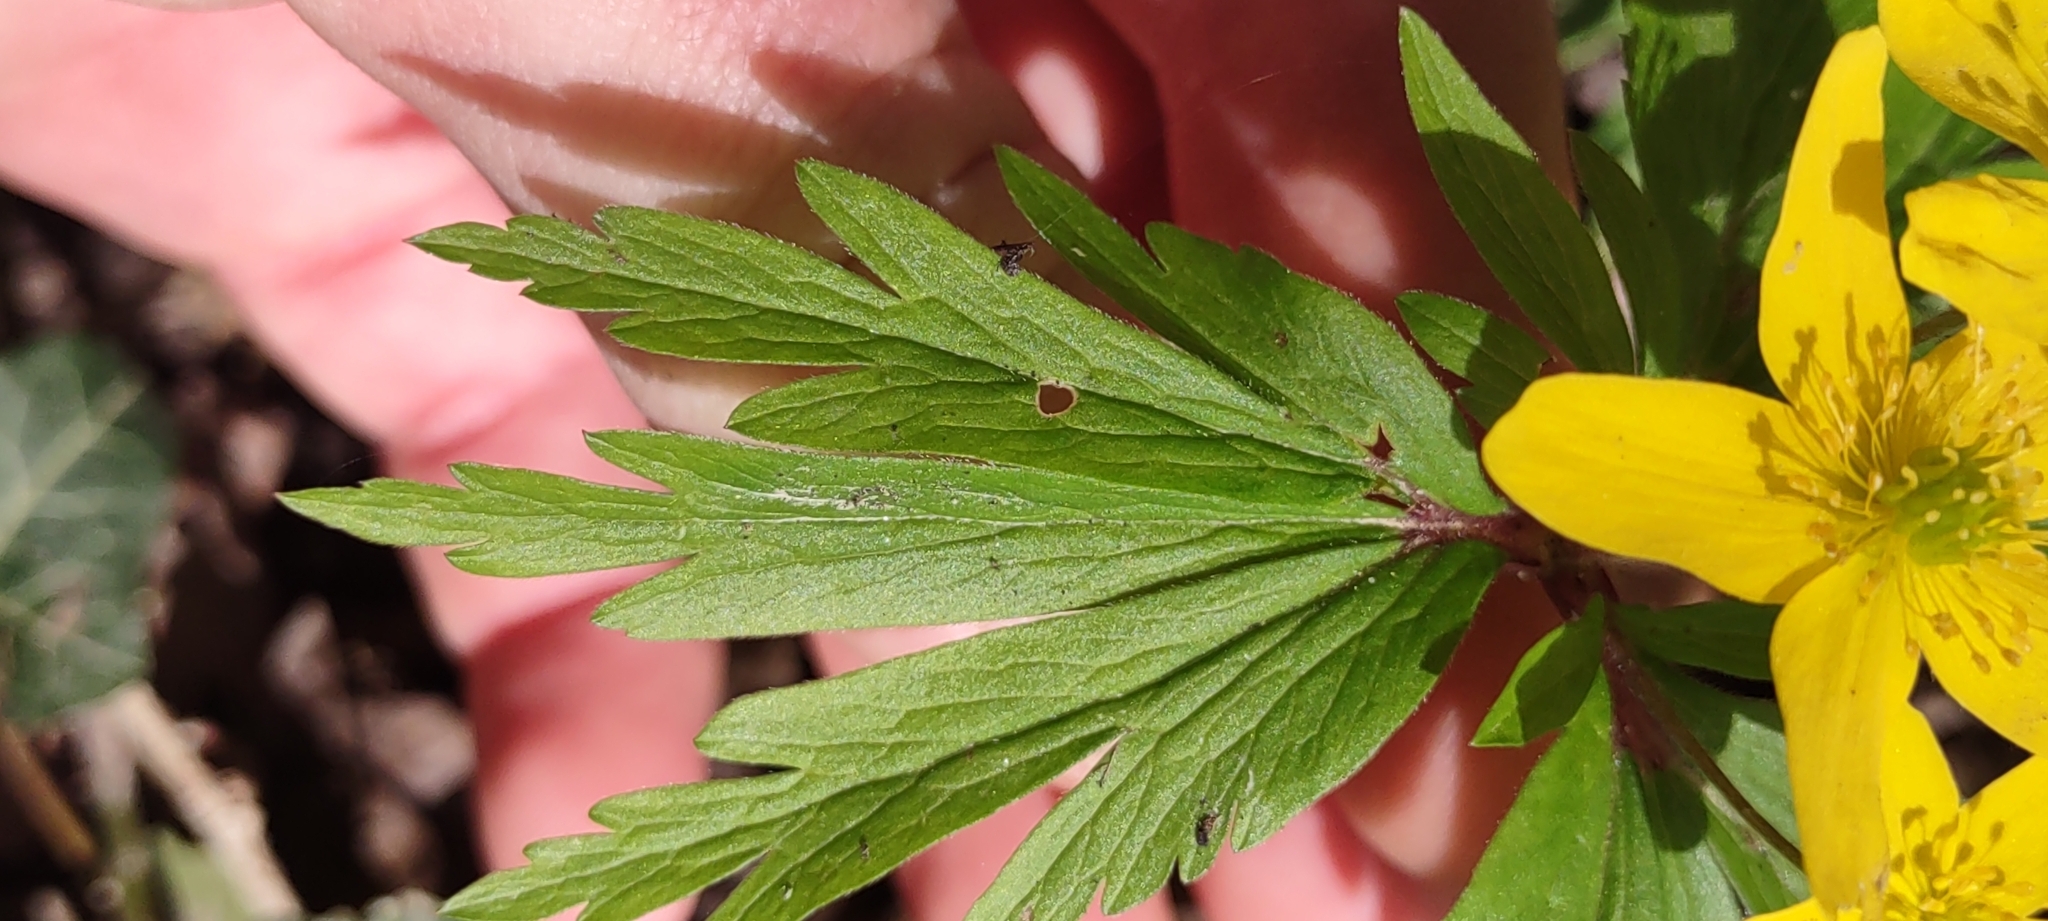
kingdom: Plantae
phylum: Tracheophyta
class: Magnoliopsida
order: Ranunculales
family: Ranunculaceae
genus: Anemone
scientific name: Anemone ranunculoides
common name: Yellow anemone
